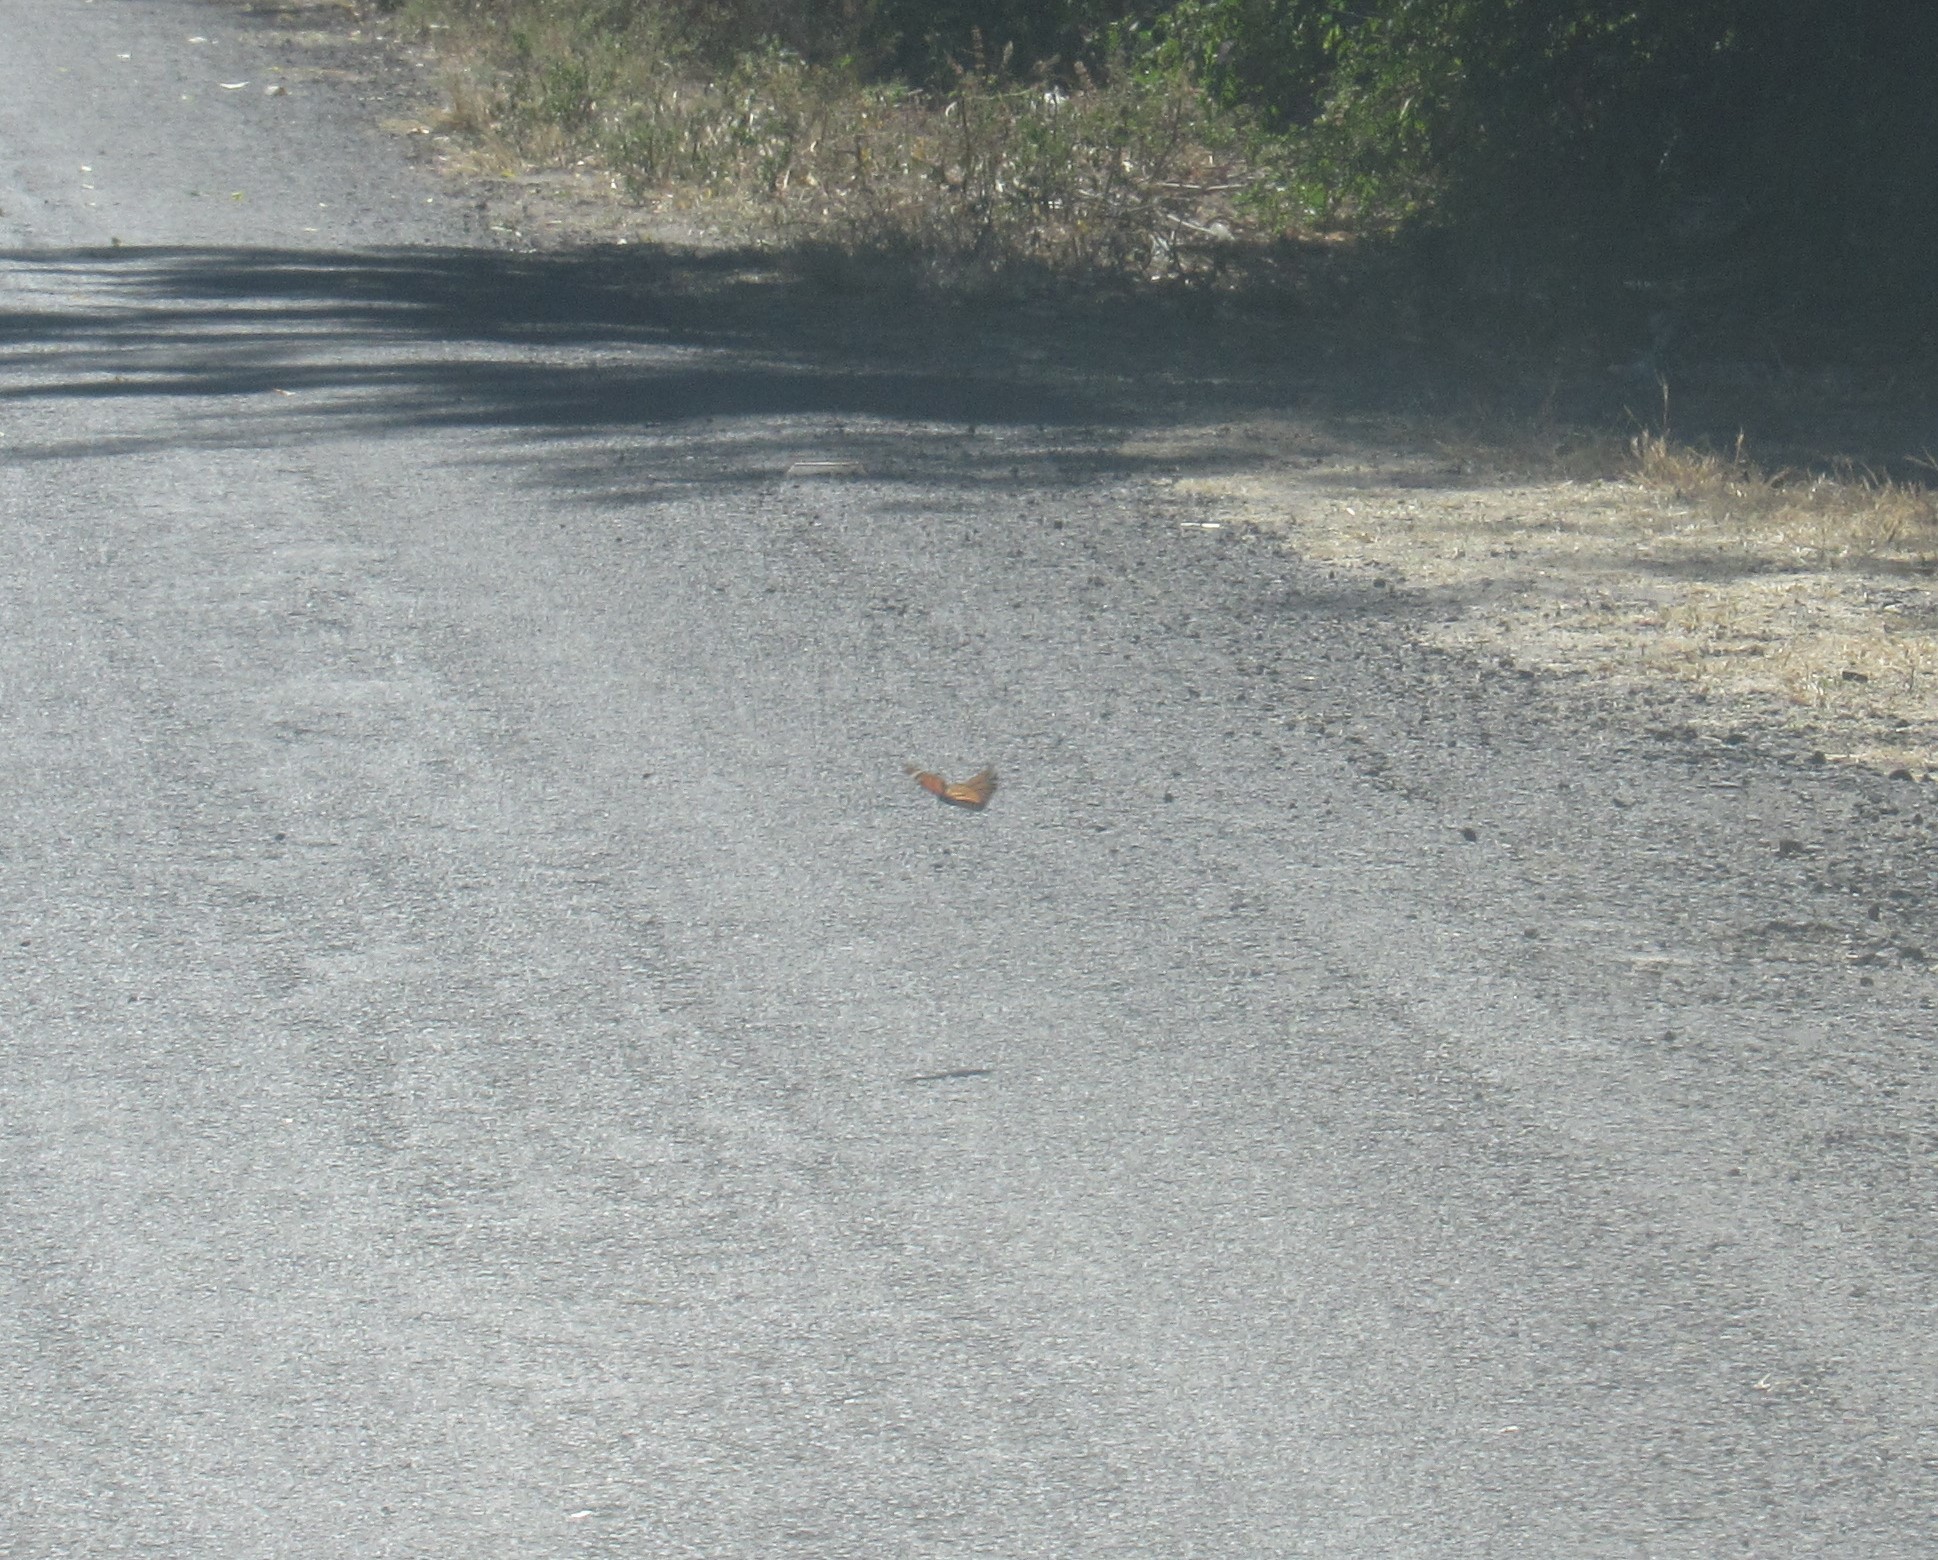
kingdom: Animalia
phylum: Arthropoda
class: Insecta
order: Lepidoptera
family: Nymphalidae
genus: Danaus
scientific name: Danaus plexippus
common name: Monarch
